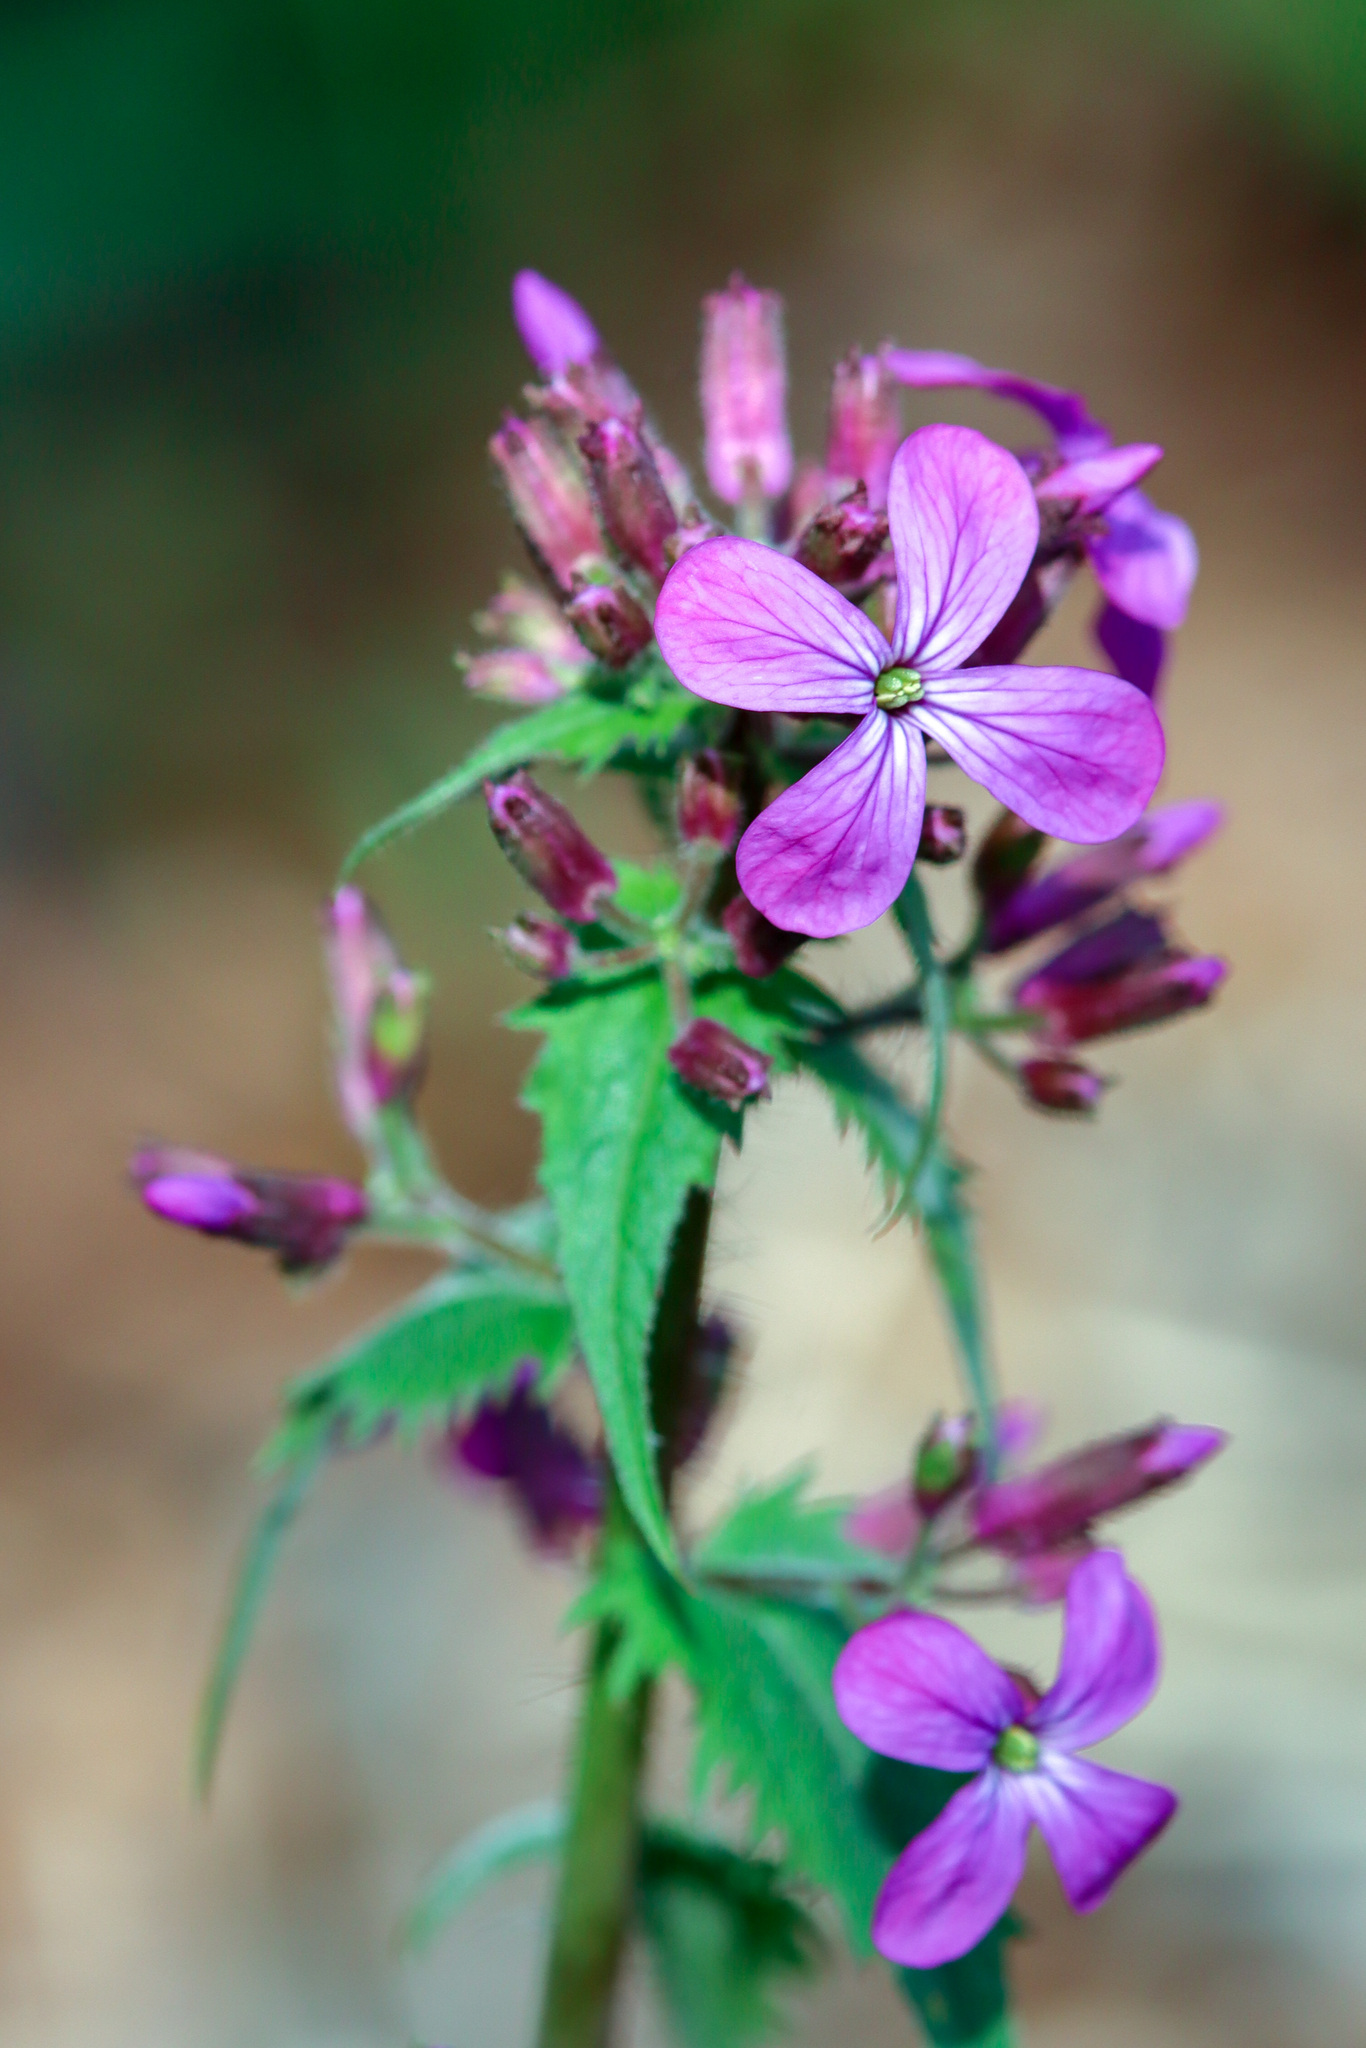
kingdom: Plantae
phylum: Tracheophyta
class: Magnoliopsida
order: Brassicales
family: Brassicaceae
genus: Lunaria
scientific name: Lunaria annua
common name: Honesty
